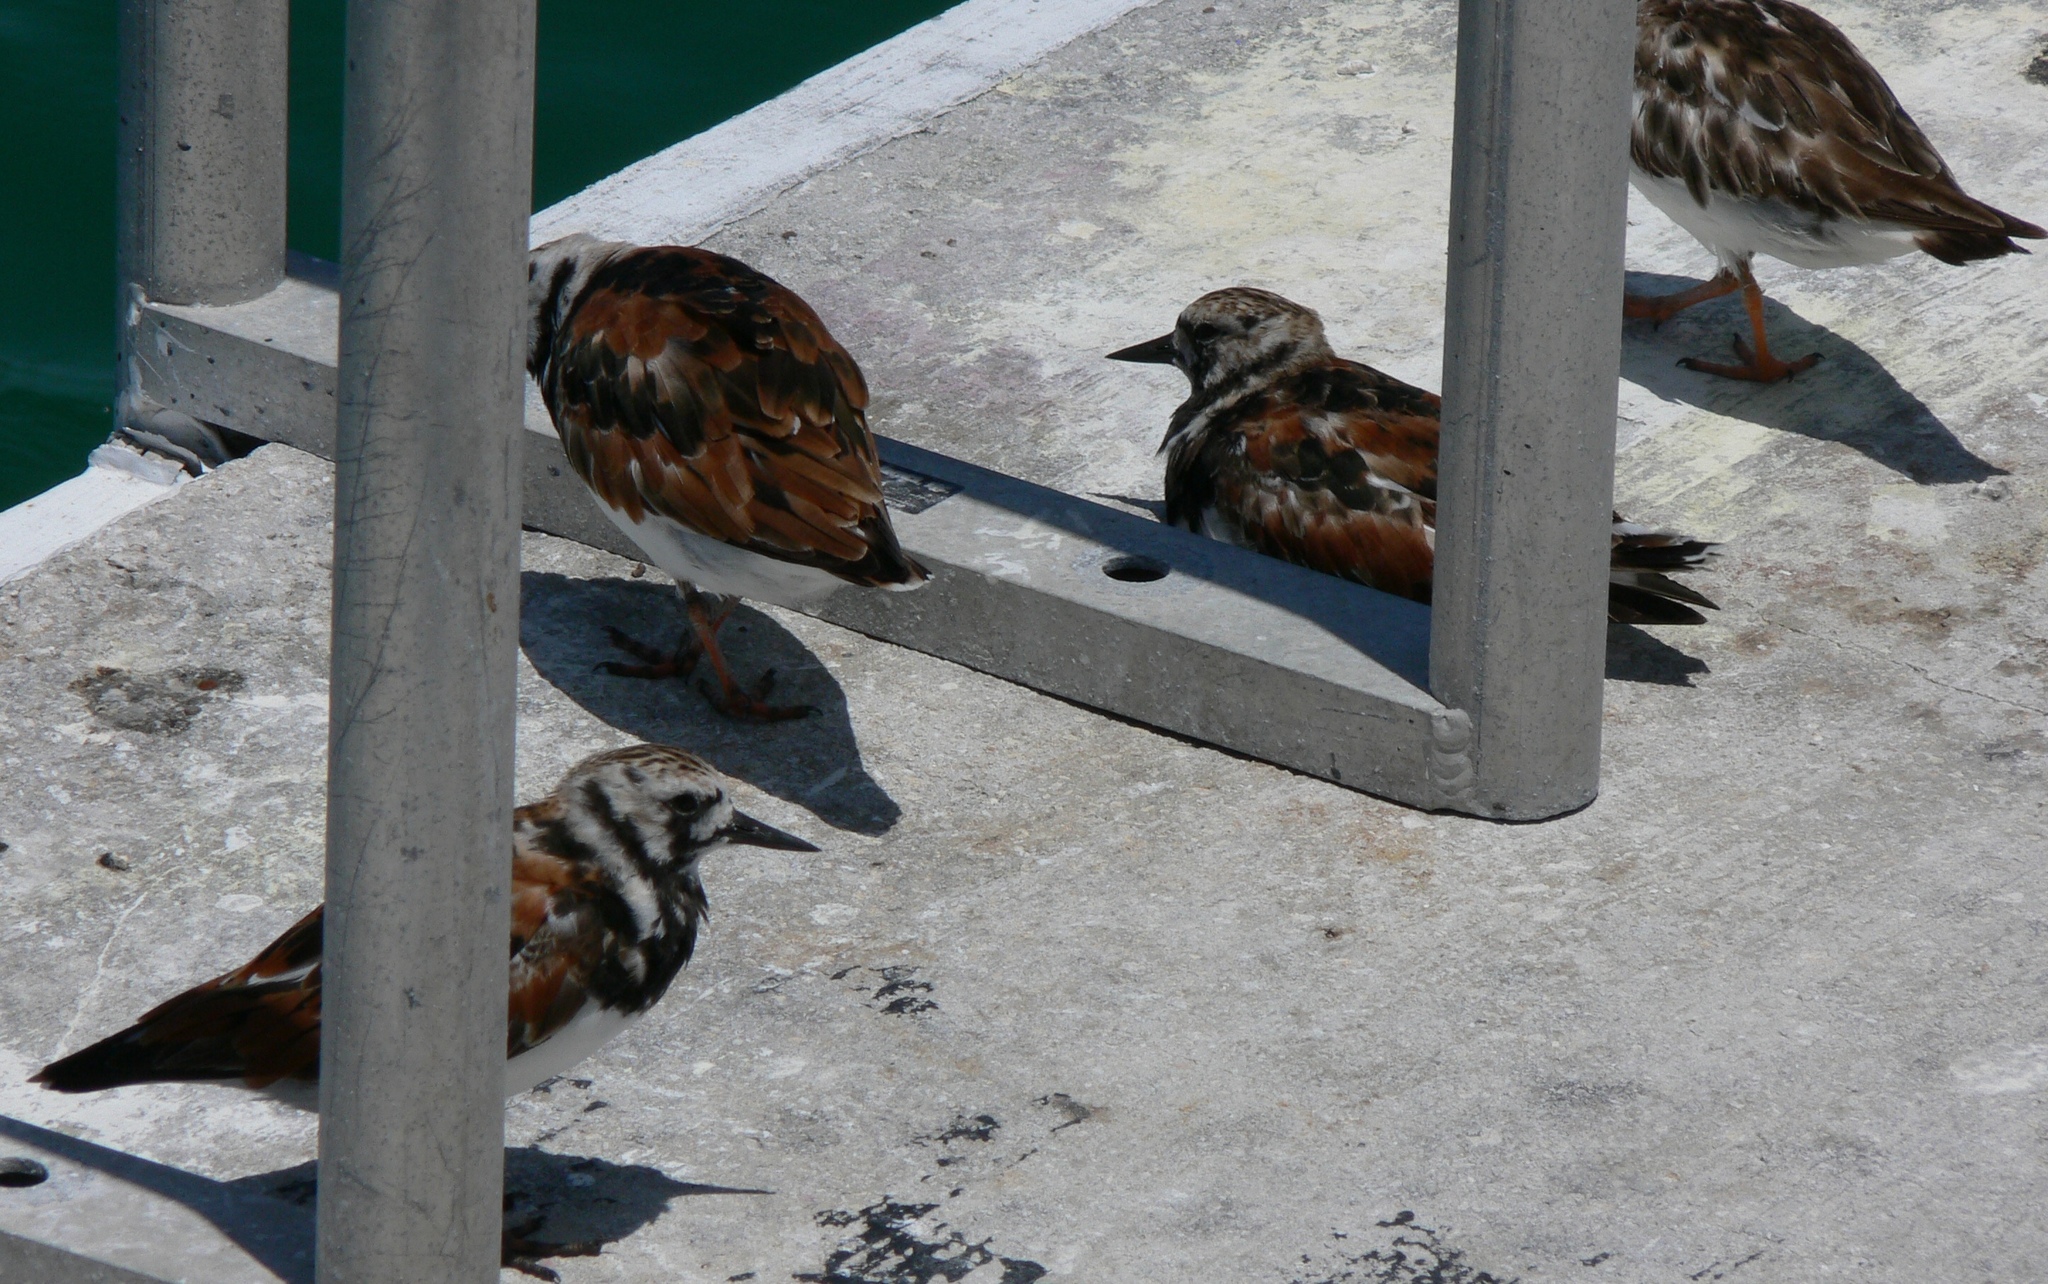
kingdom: Animalia
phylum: Chordata
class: Aves
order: Charadriiformes
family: Scolopacidae
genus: Arenaria
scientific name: Arenaria interpres
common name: Ruddy turnstone
